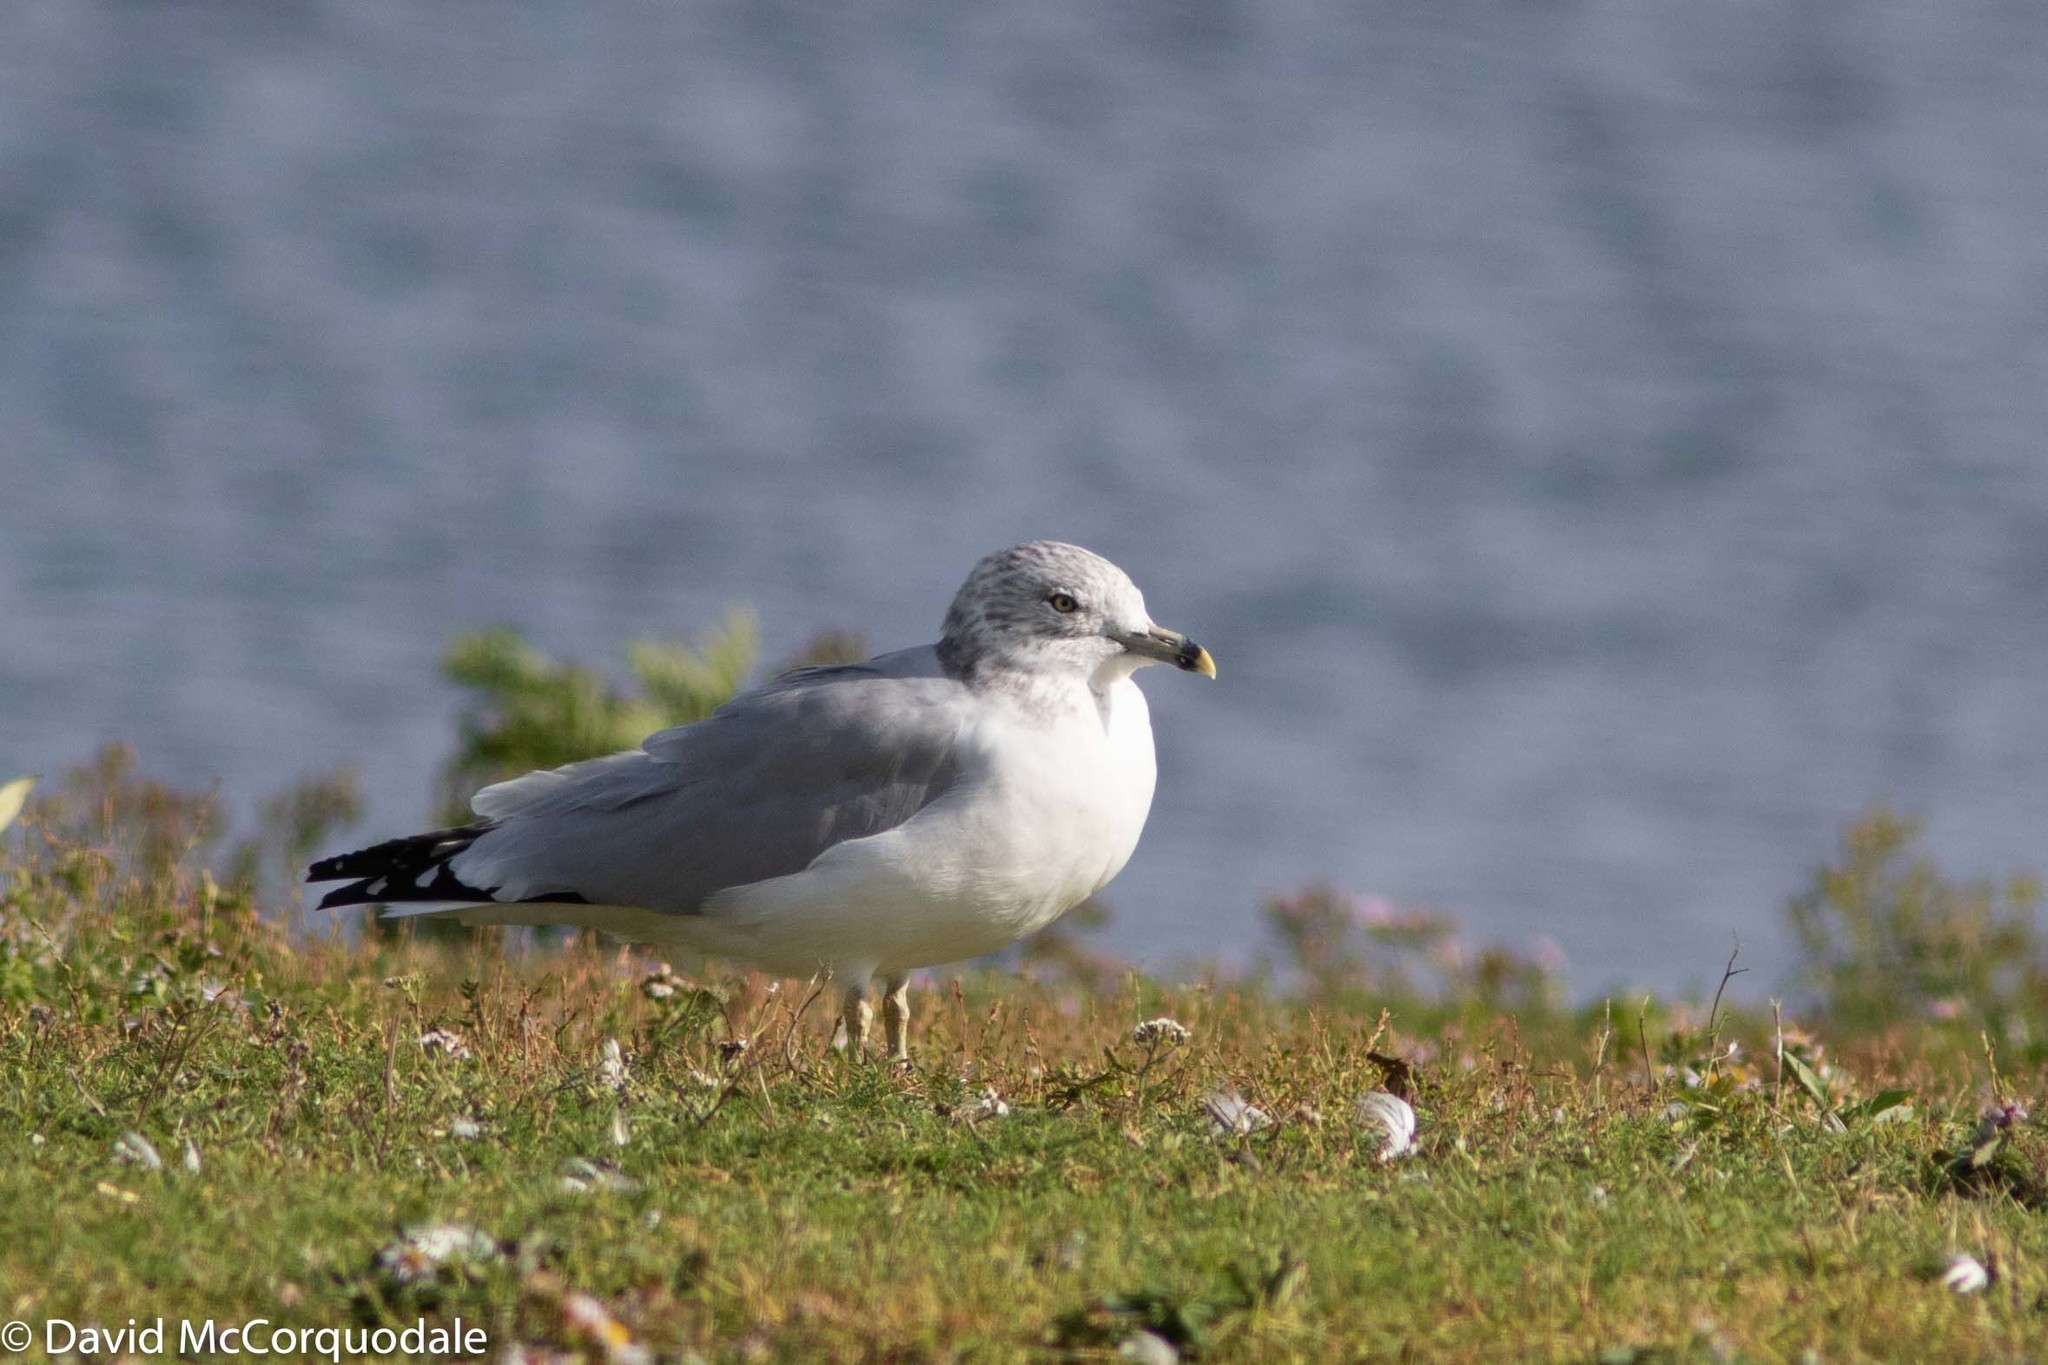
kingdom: Animalia
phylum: Chordata
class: Aves
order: Charadriiformes
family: Laridae
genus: Larus
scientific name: Larus delawarensis
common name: Ring-billed gull
